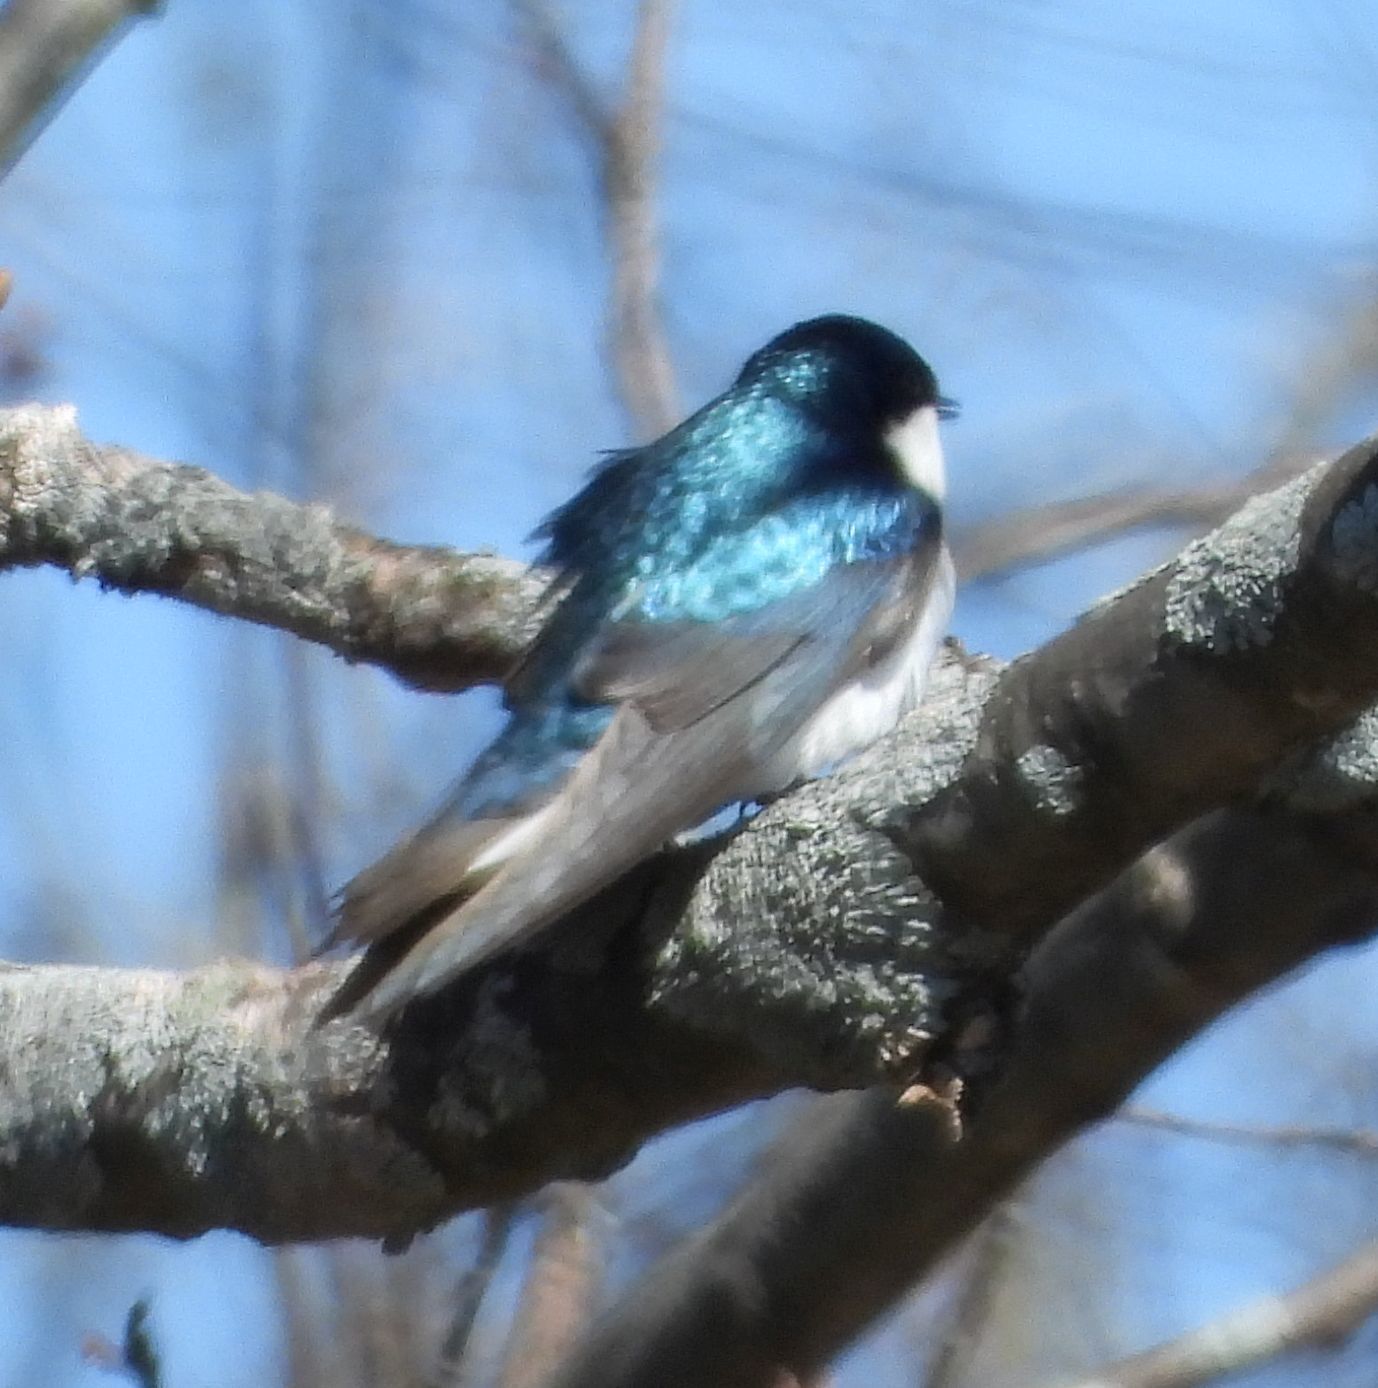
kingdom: Animalia
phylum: Chordata
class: Aves
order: Passeriformes
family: Hirundinidae
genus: Tachycineta
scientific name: Tachycineta bicolor
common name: Tree swallow
